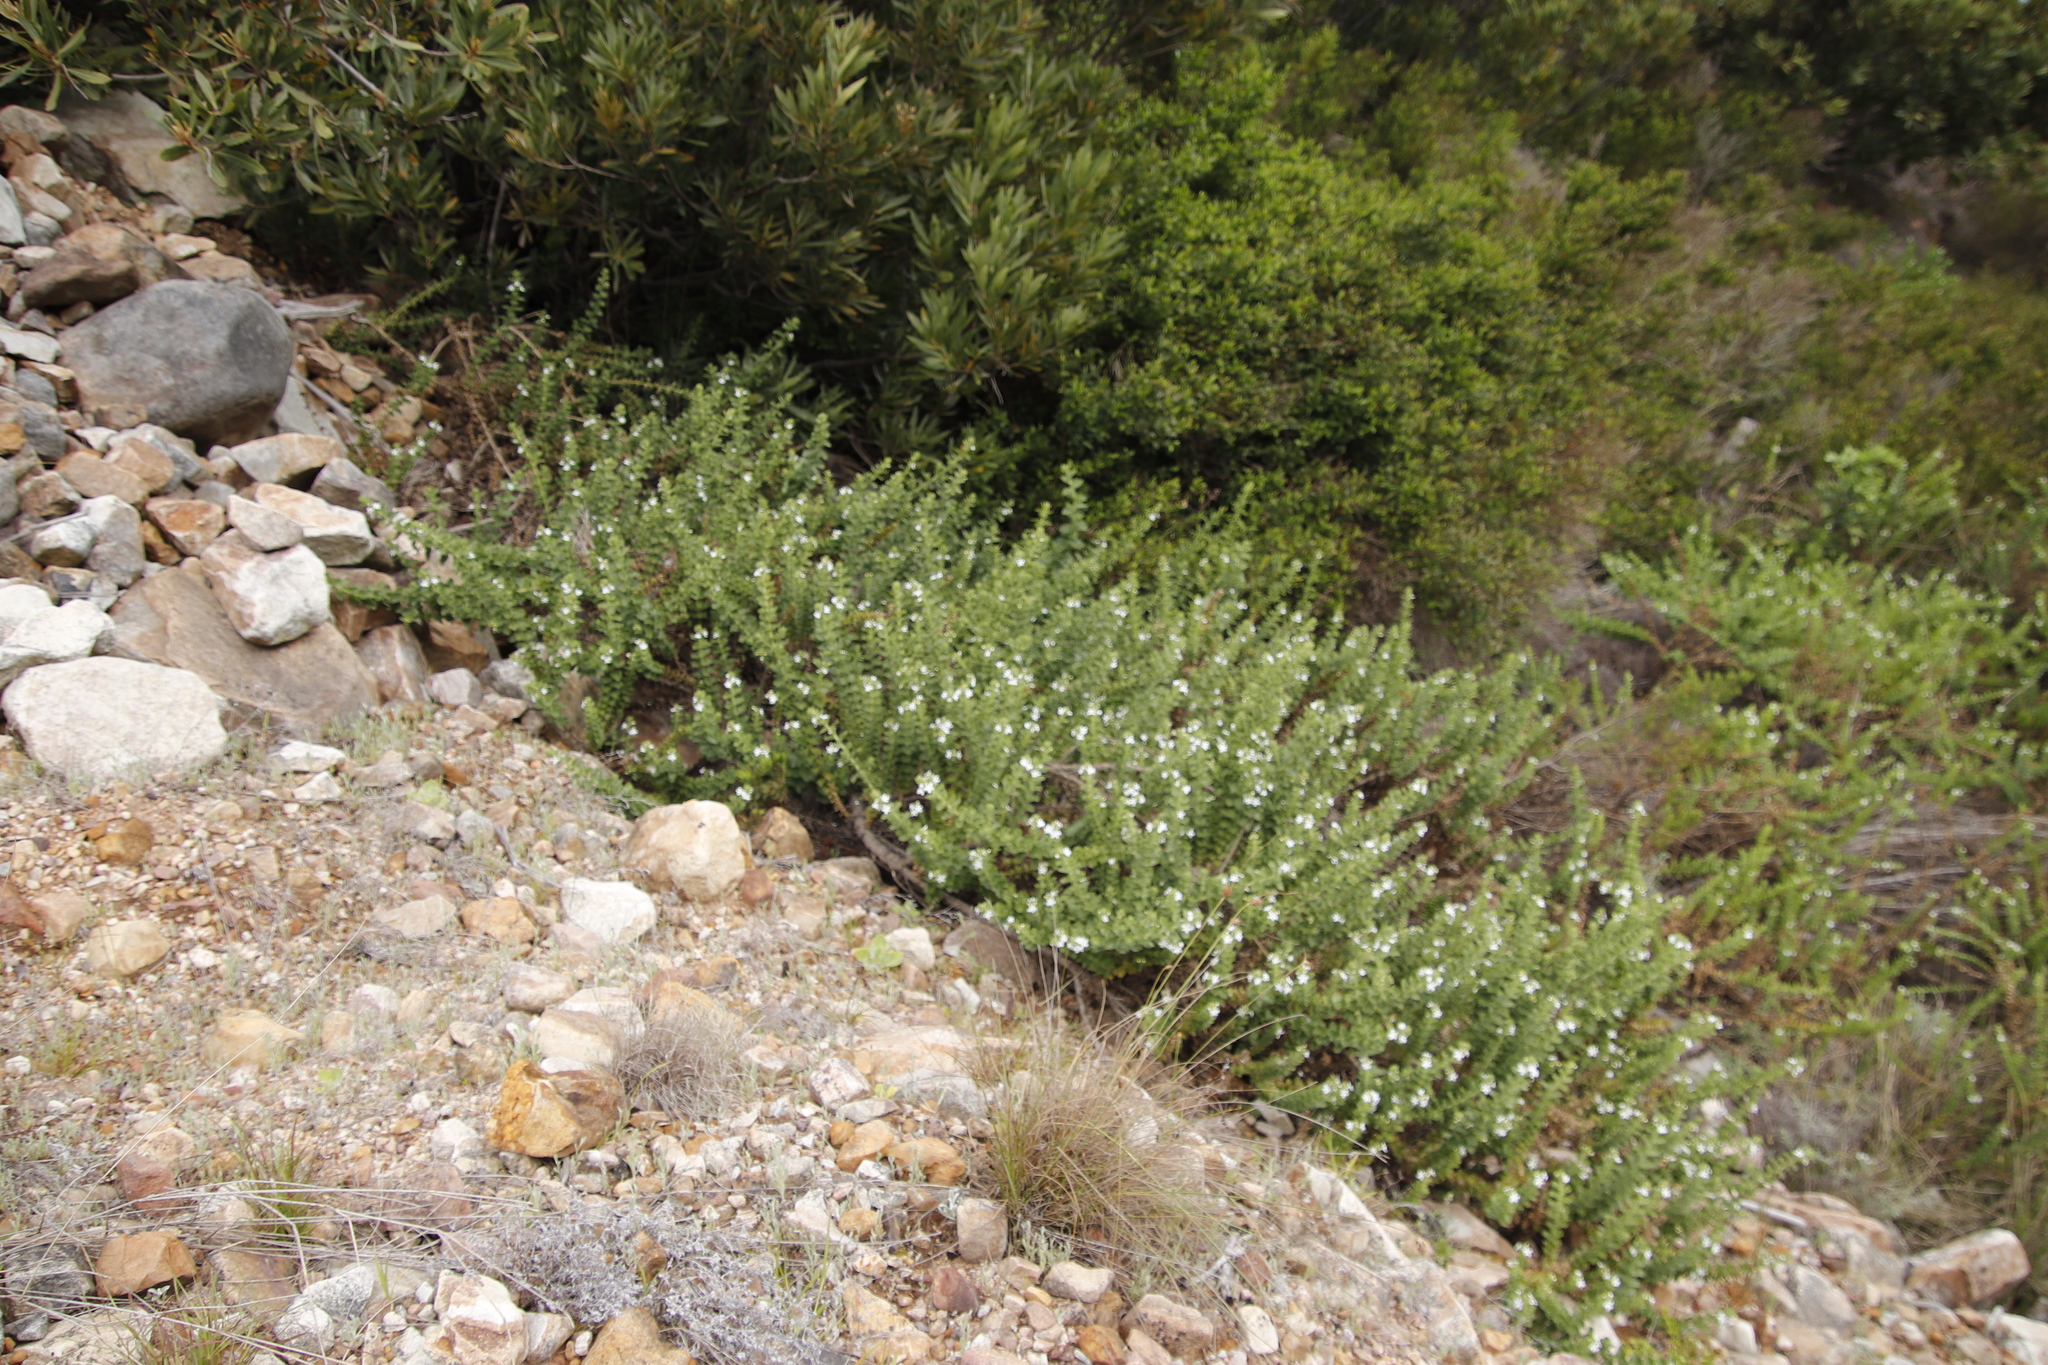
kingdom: Plantae
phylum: Tracheophyta
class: Magnoliopsida
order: Lamiales
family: Scrophulariaceae
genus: Oftia
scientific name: Oftia africana
